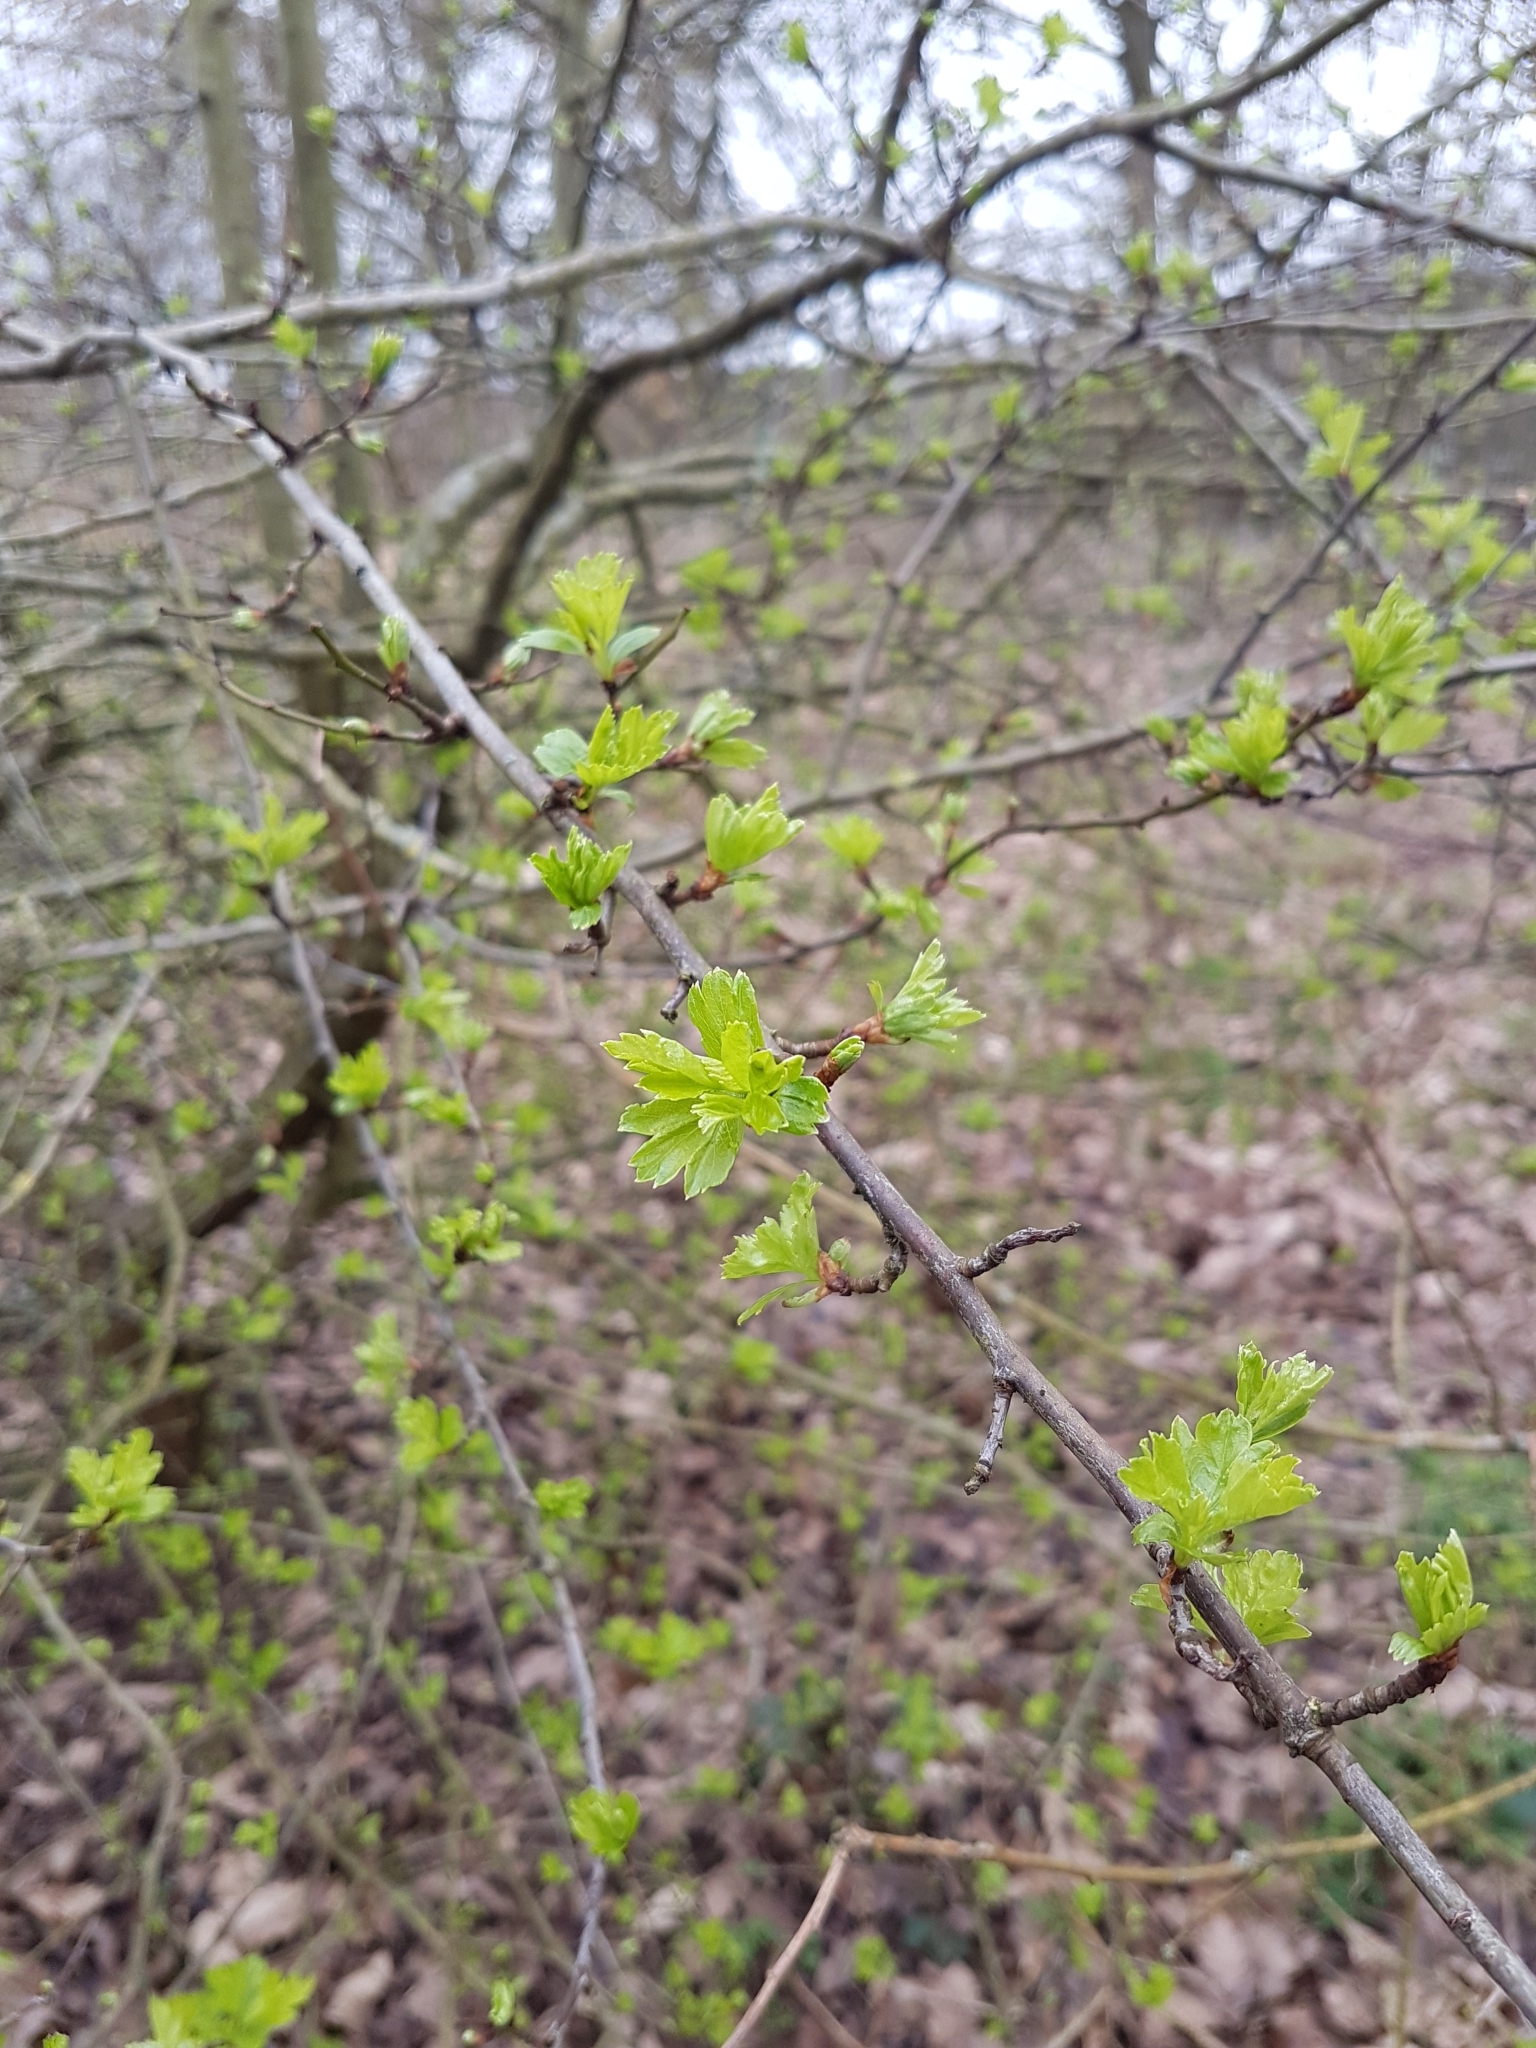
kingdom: Plantae
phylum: Tracheophyta
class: Magnoliopsida
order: Rosales
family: Rosaceae
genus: Crataegus
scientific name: Crataegus monogyna
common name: Hawthorn
